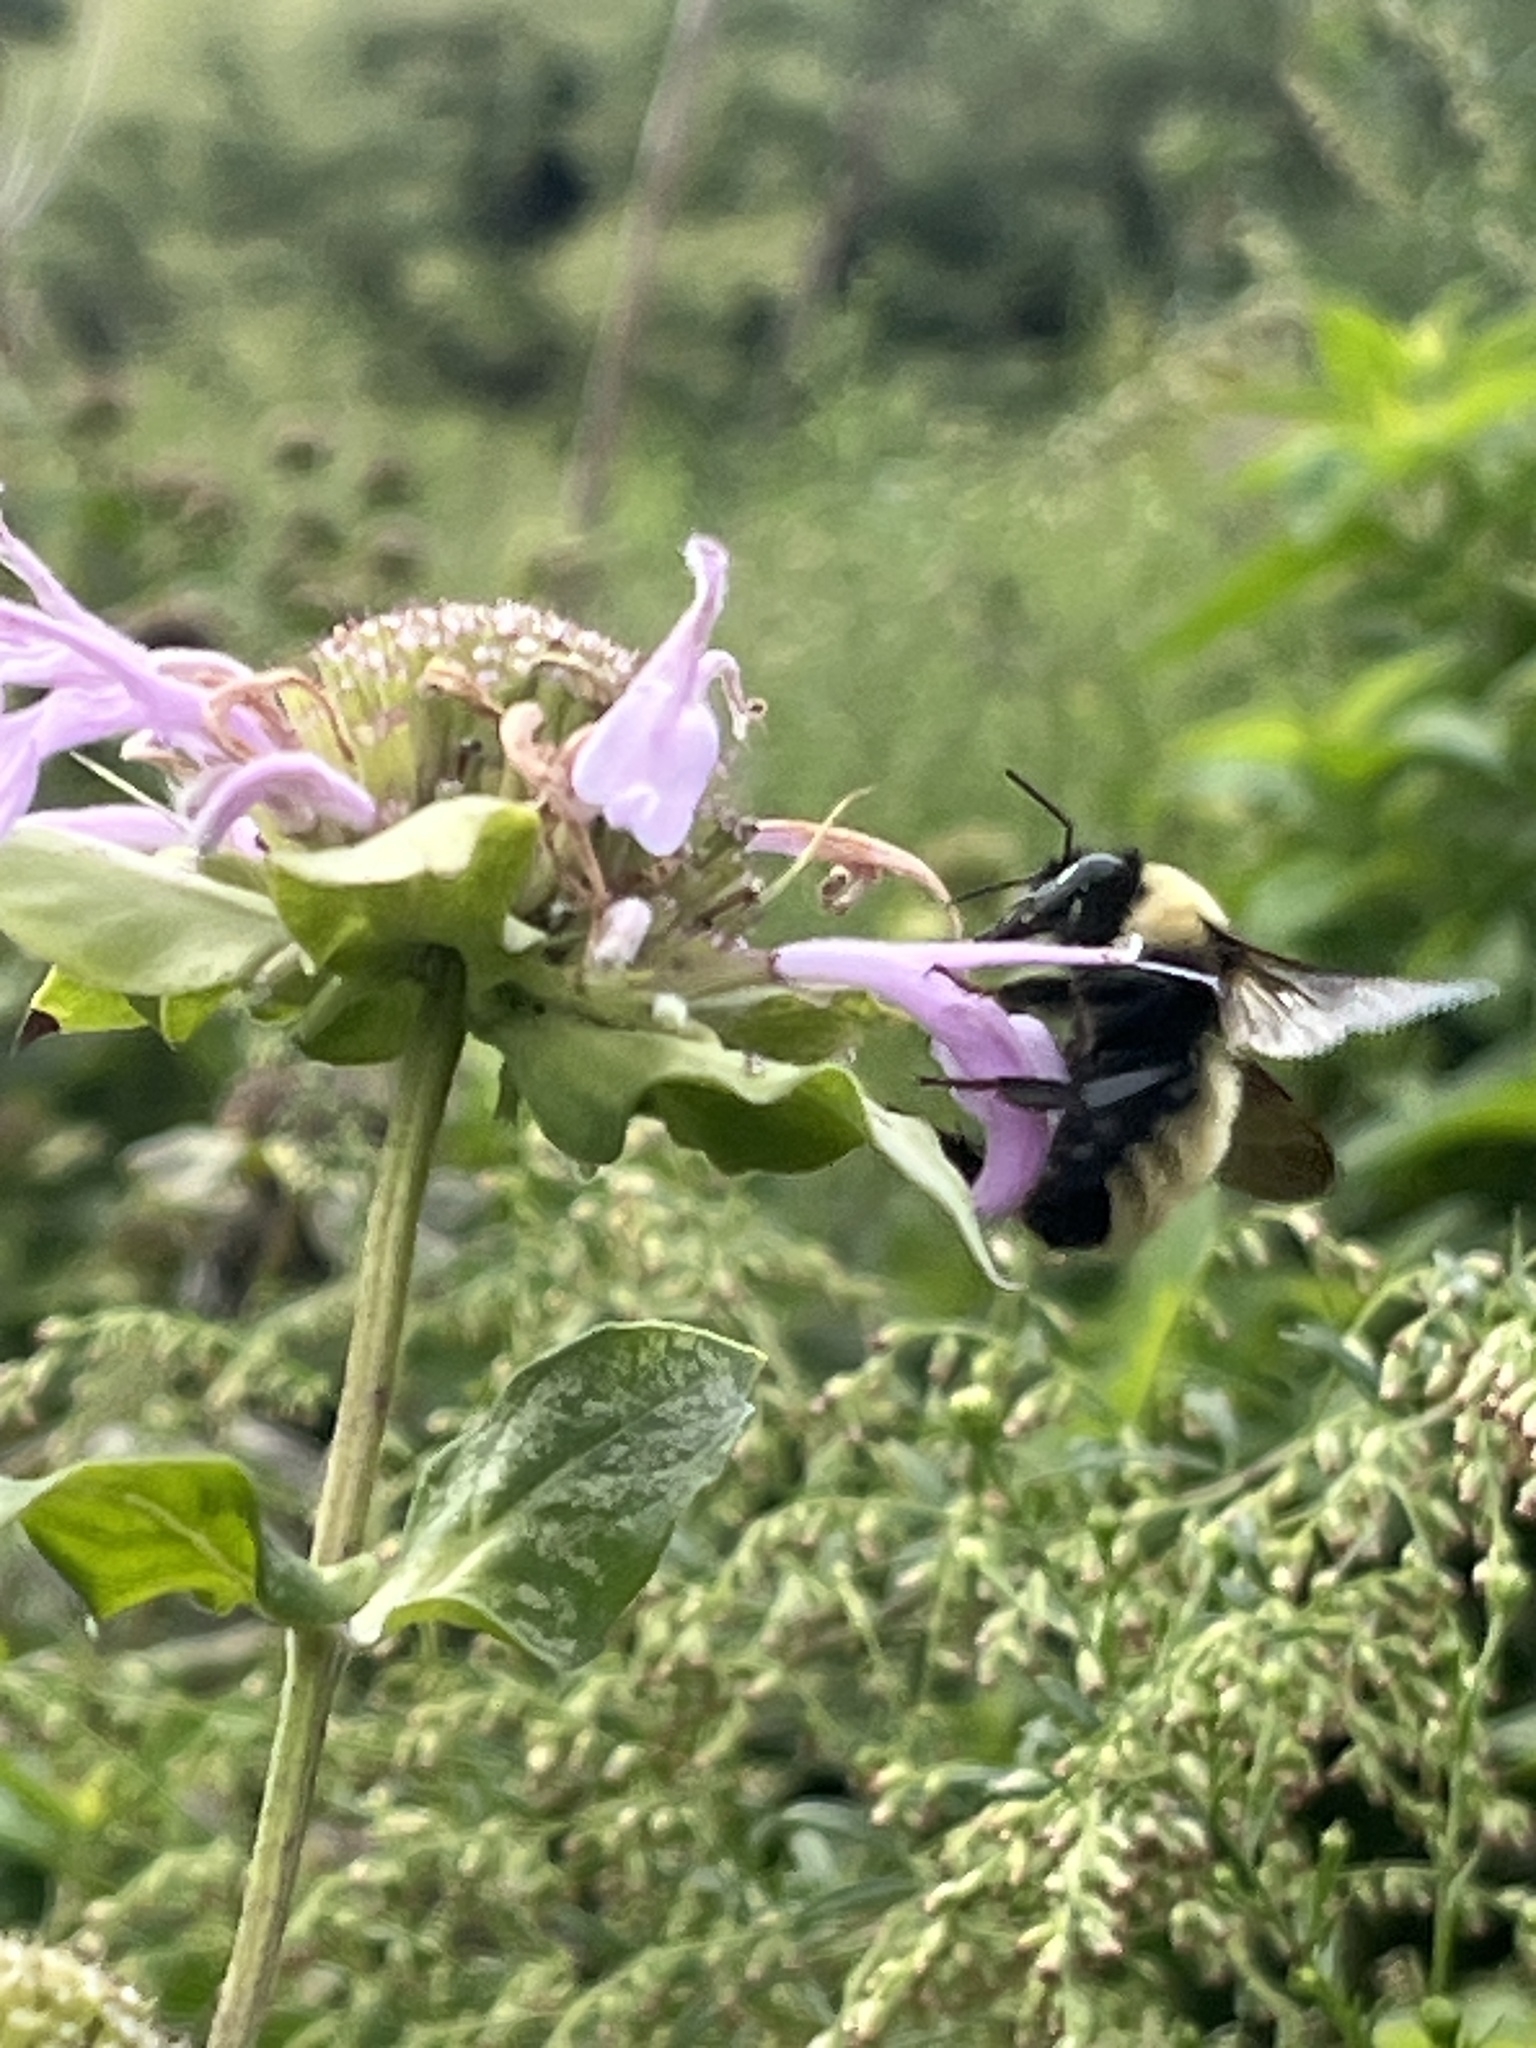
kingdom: Animalia
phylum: Arthropoda
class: Insecta
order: Hymenoptera
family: Apidae
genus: Bombus
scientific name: Bombus fervidus
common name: Yellow bumble bee
